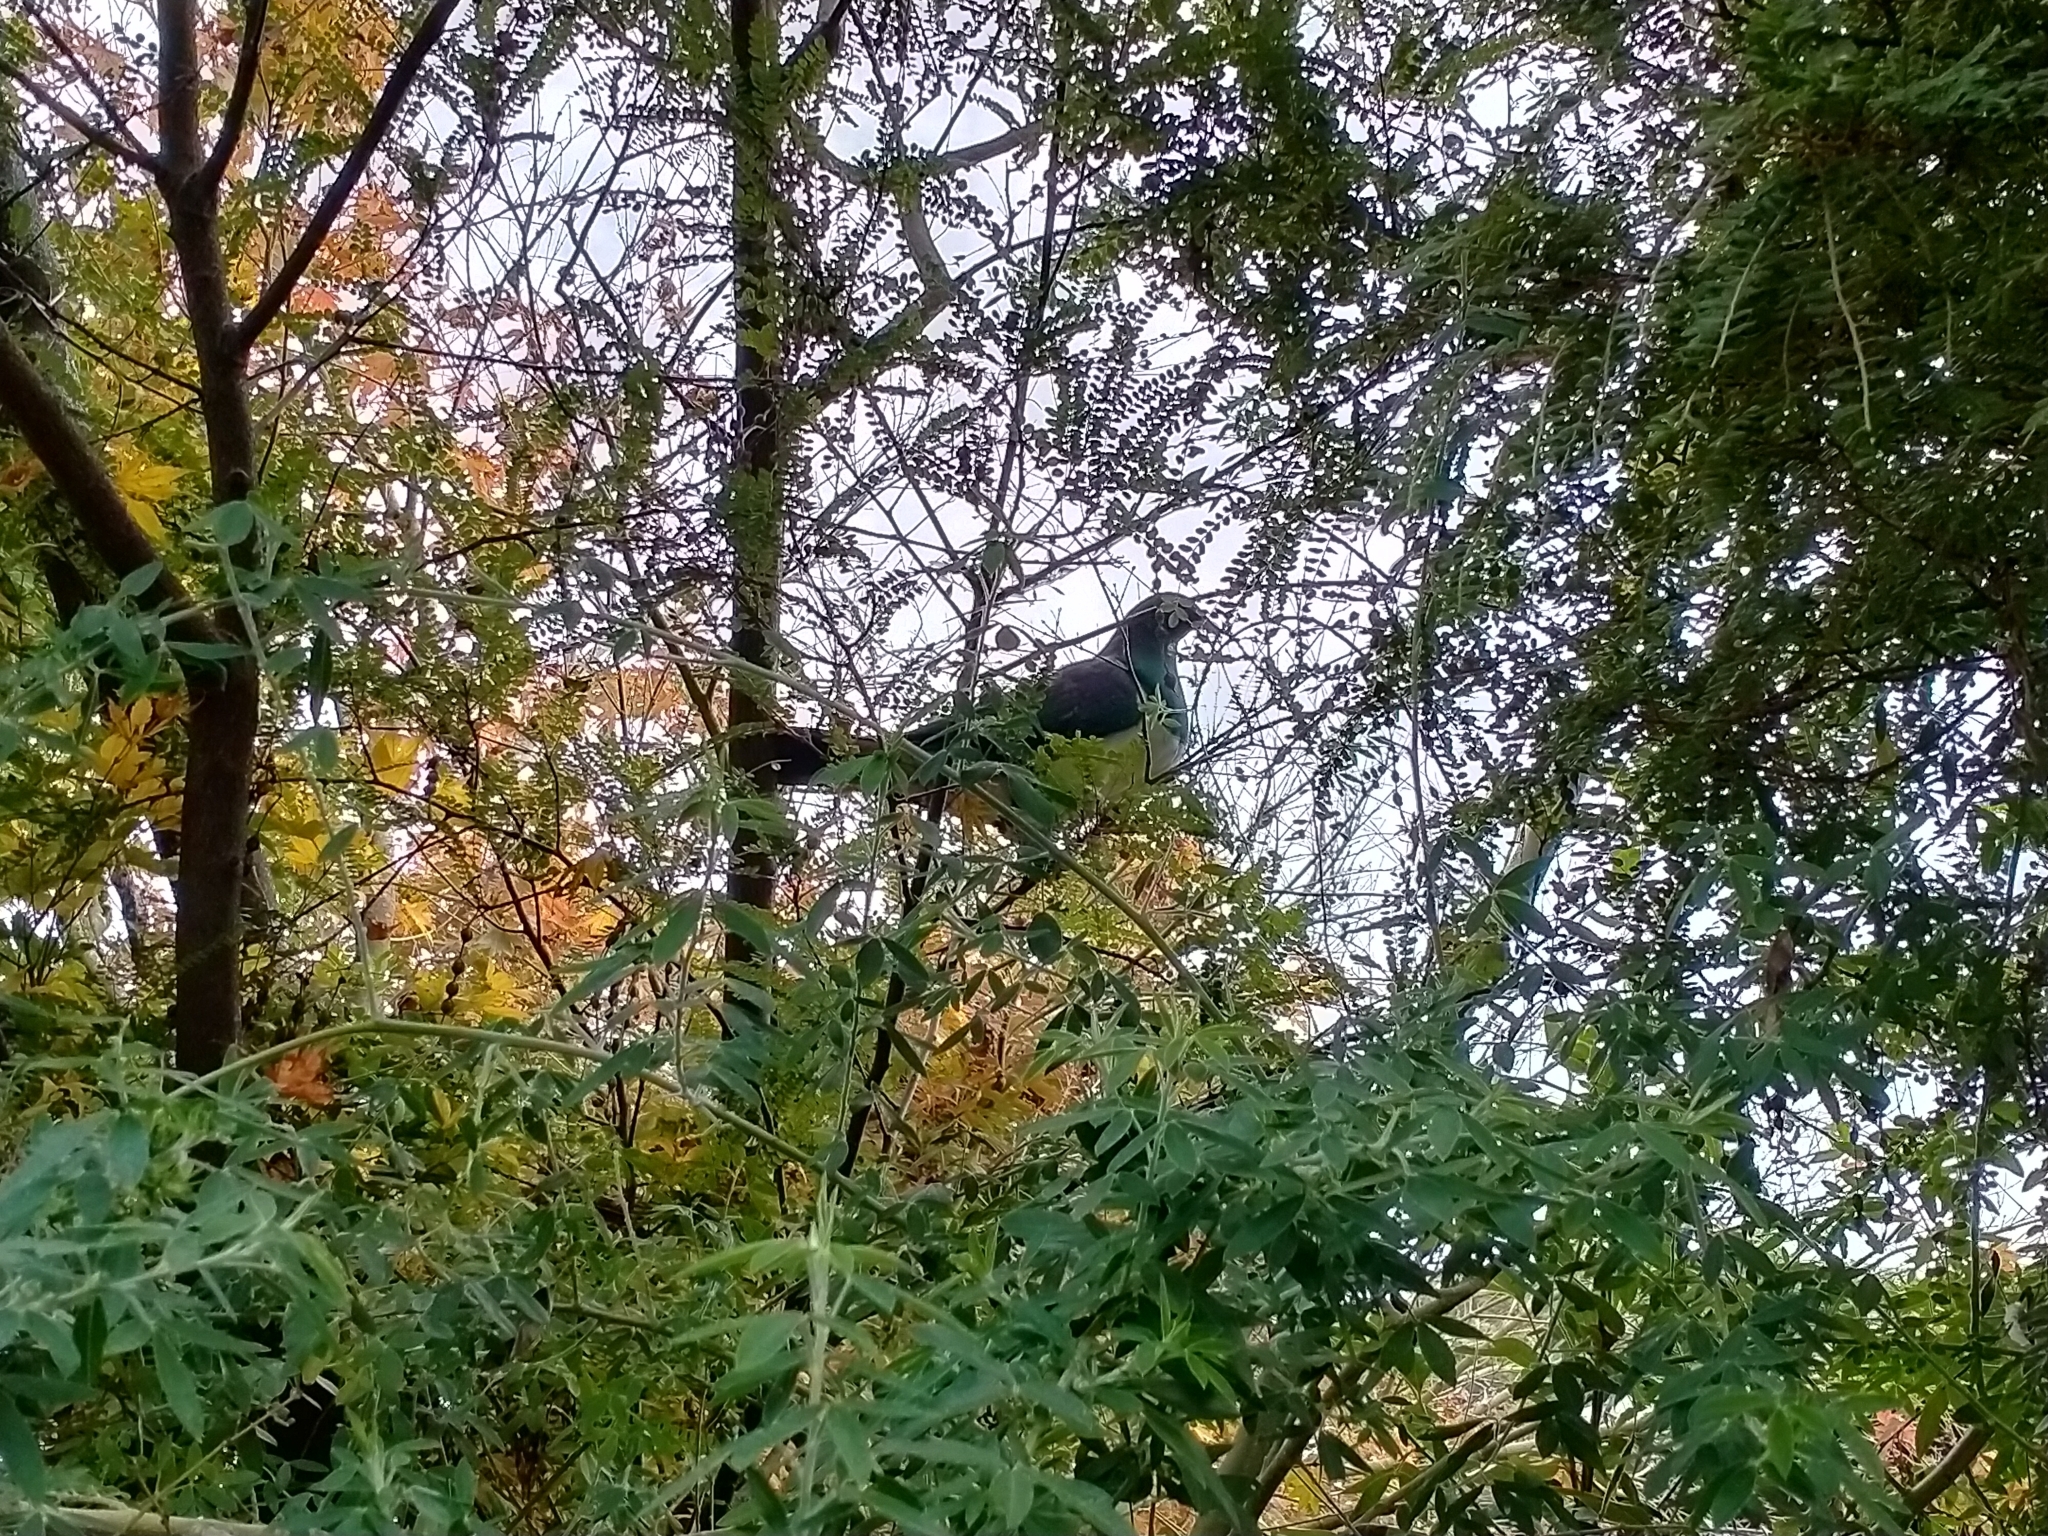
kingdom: Animalia
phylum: Chordata
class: Aves
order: Columbiformes
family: Columbidae
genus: Hemiphaga
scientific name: Hemiphaga novaeseelandiae
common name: New zealand pigeon
